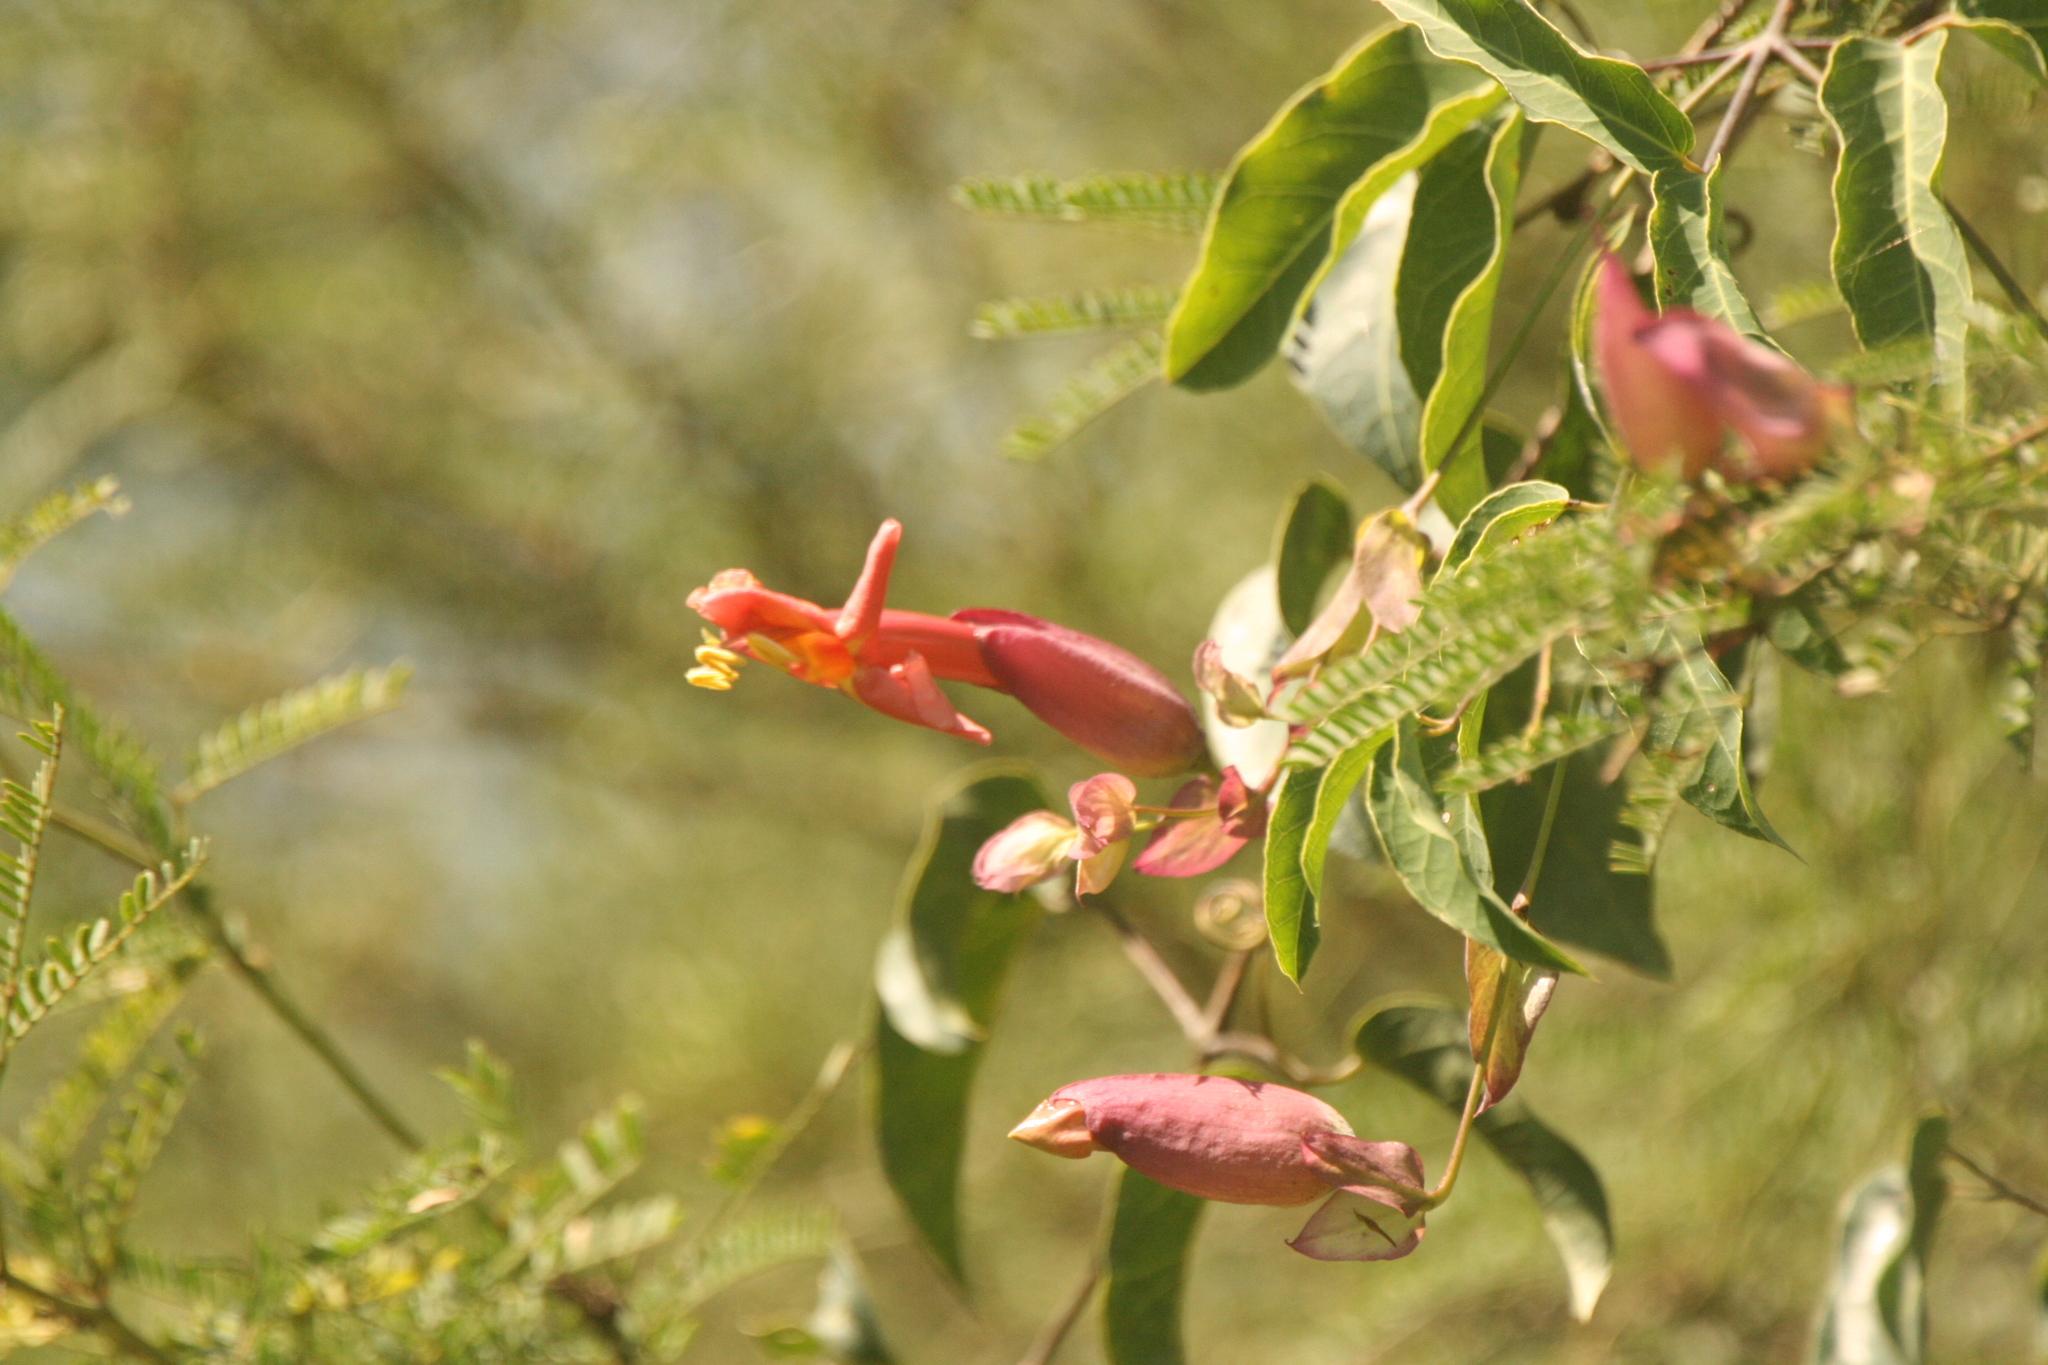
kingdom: Plantae
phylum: Tracheophyta
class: Magnoliopsida
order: Lamiales
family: Bignoniaceae
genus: Dolichandra
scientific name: Dolichandra cynanchoides
